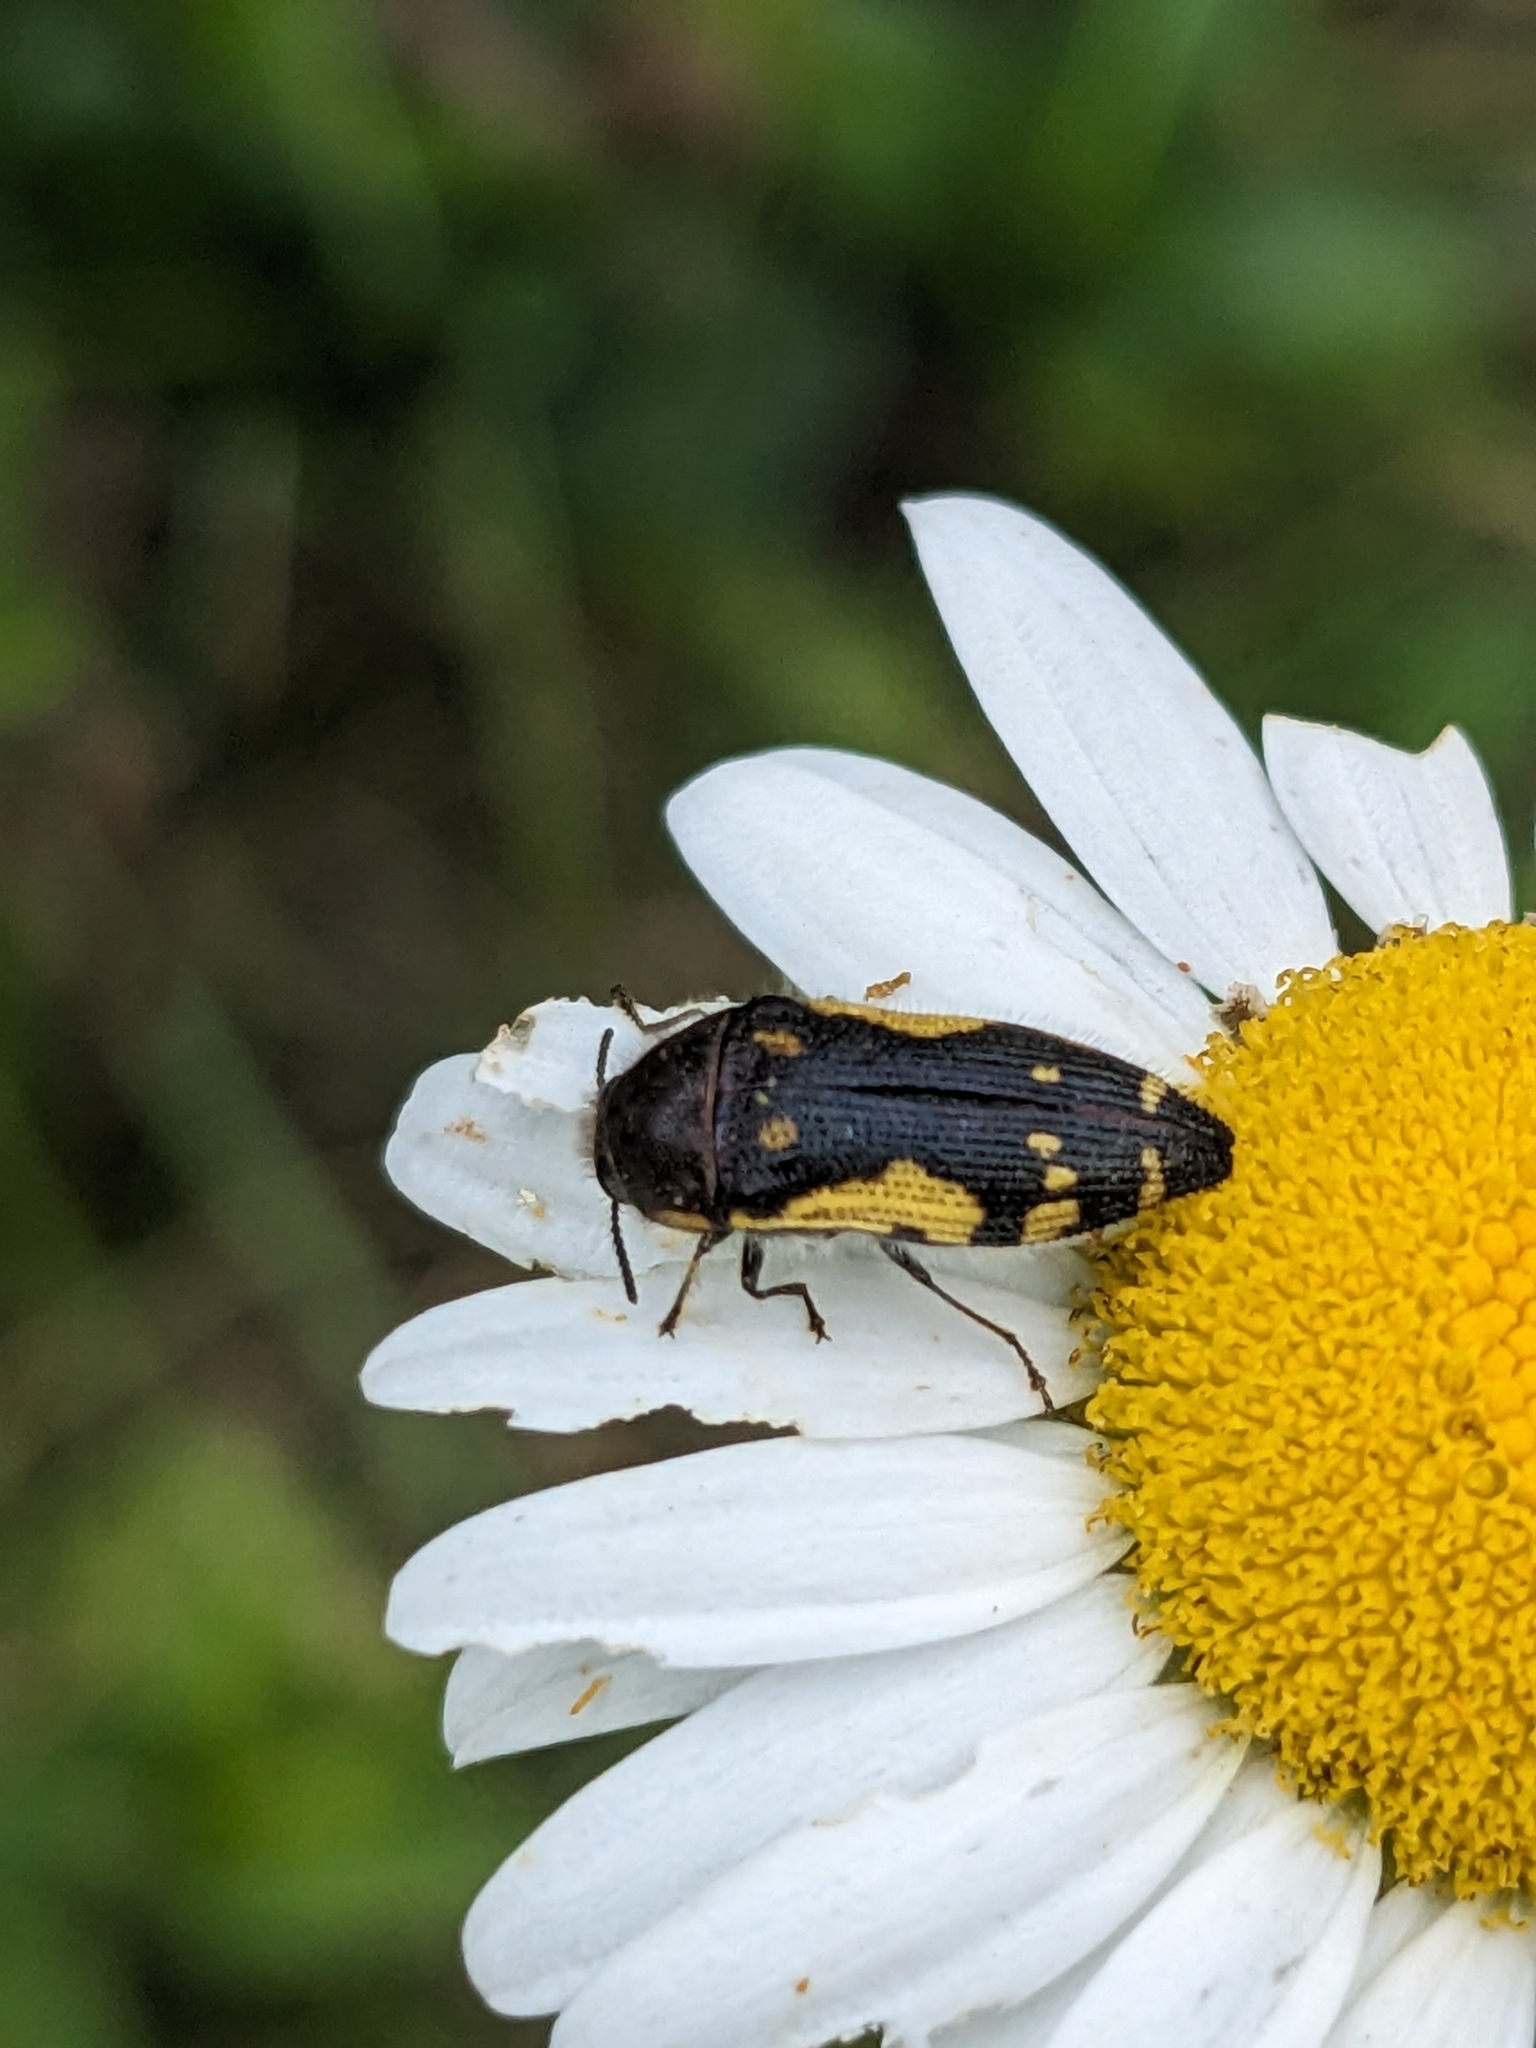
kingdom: Animalia
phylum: Arthropoda
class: Insecta
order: Coleoptera
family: Buprestidae
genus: Acmaeodera
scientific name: Acmaeodera pulchella
